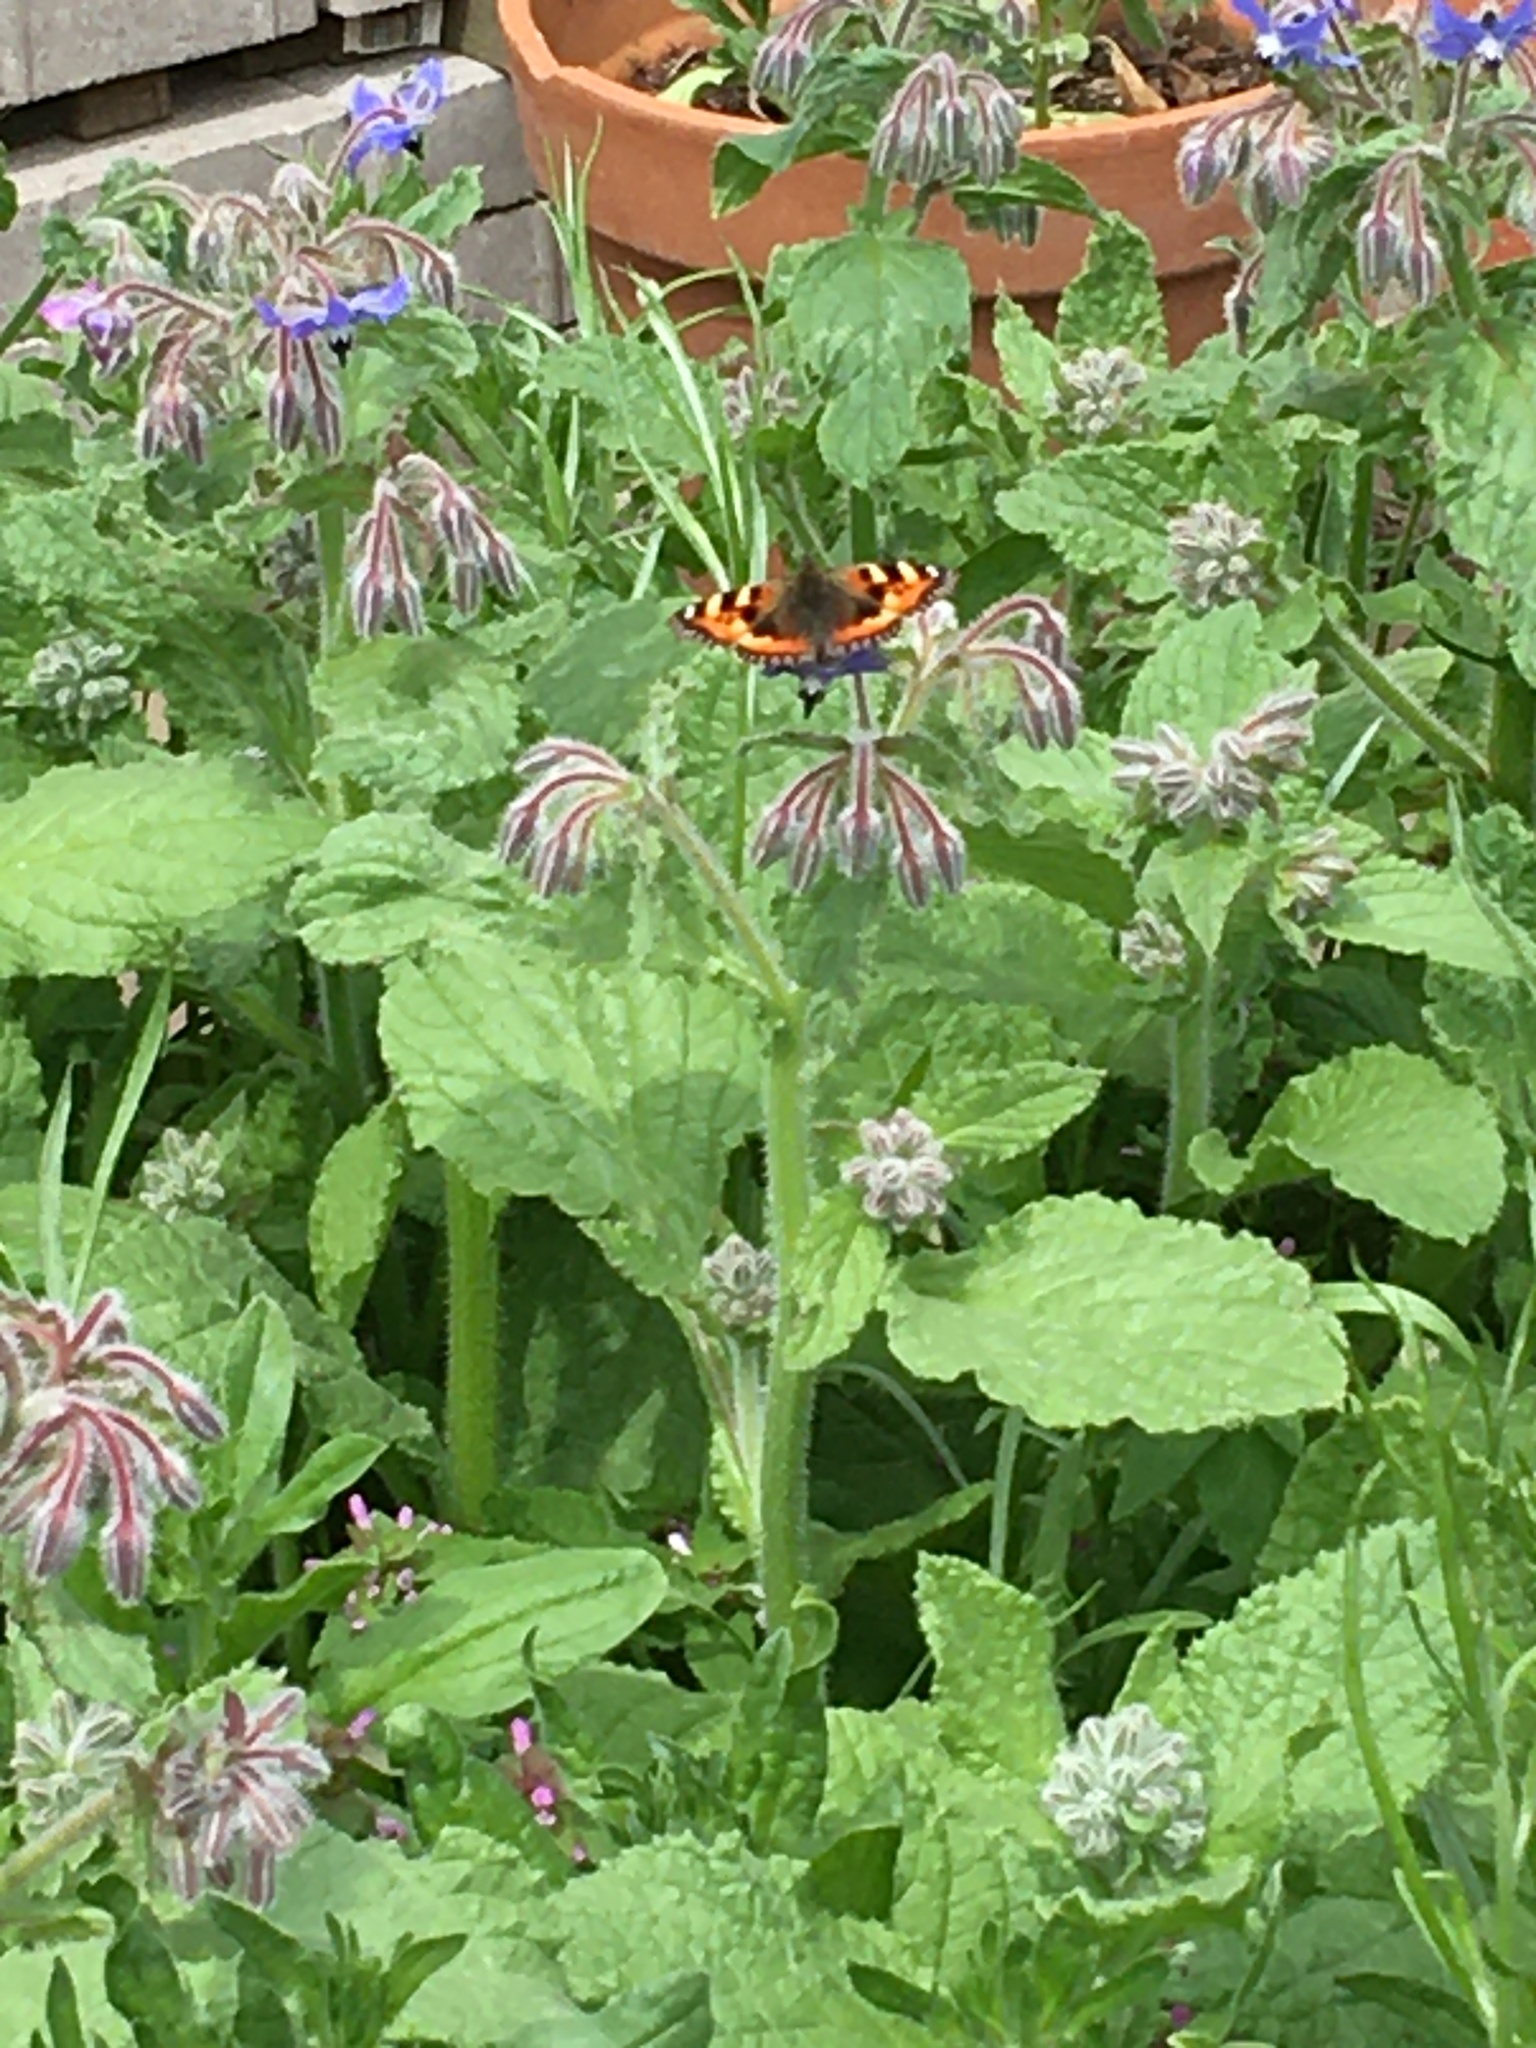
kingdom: Animalia
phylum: Arthropoda
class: Insecta
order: Lepidoptera
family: Nymphalidae
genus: Aglais
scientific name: Aglais urticae
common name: Small tortoiseshell
